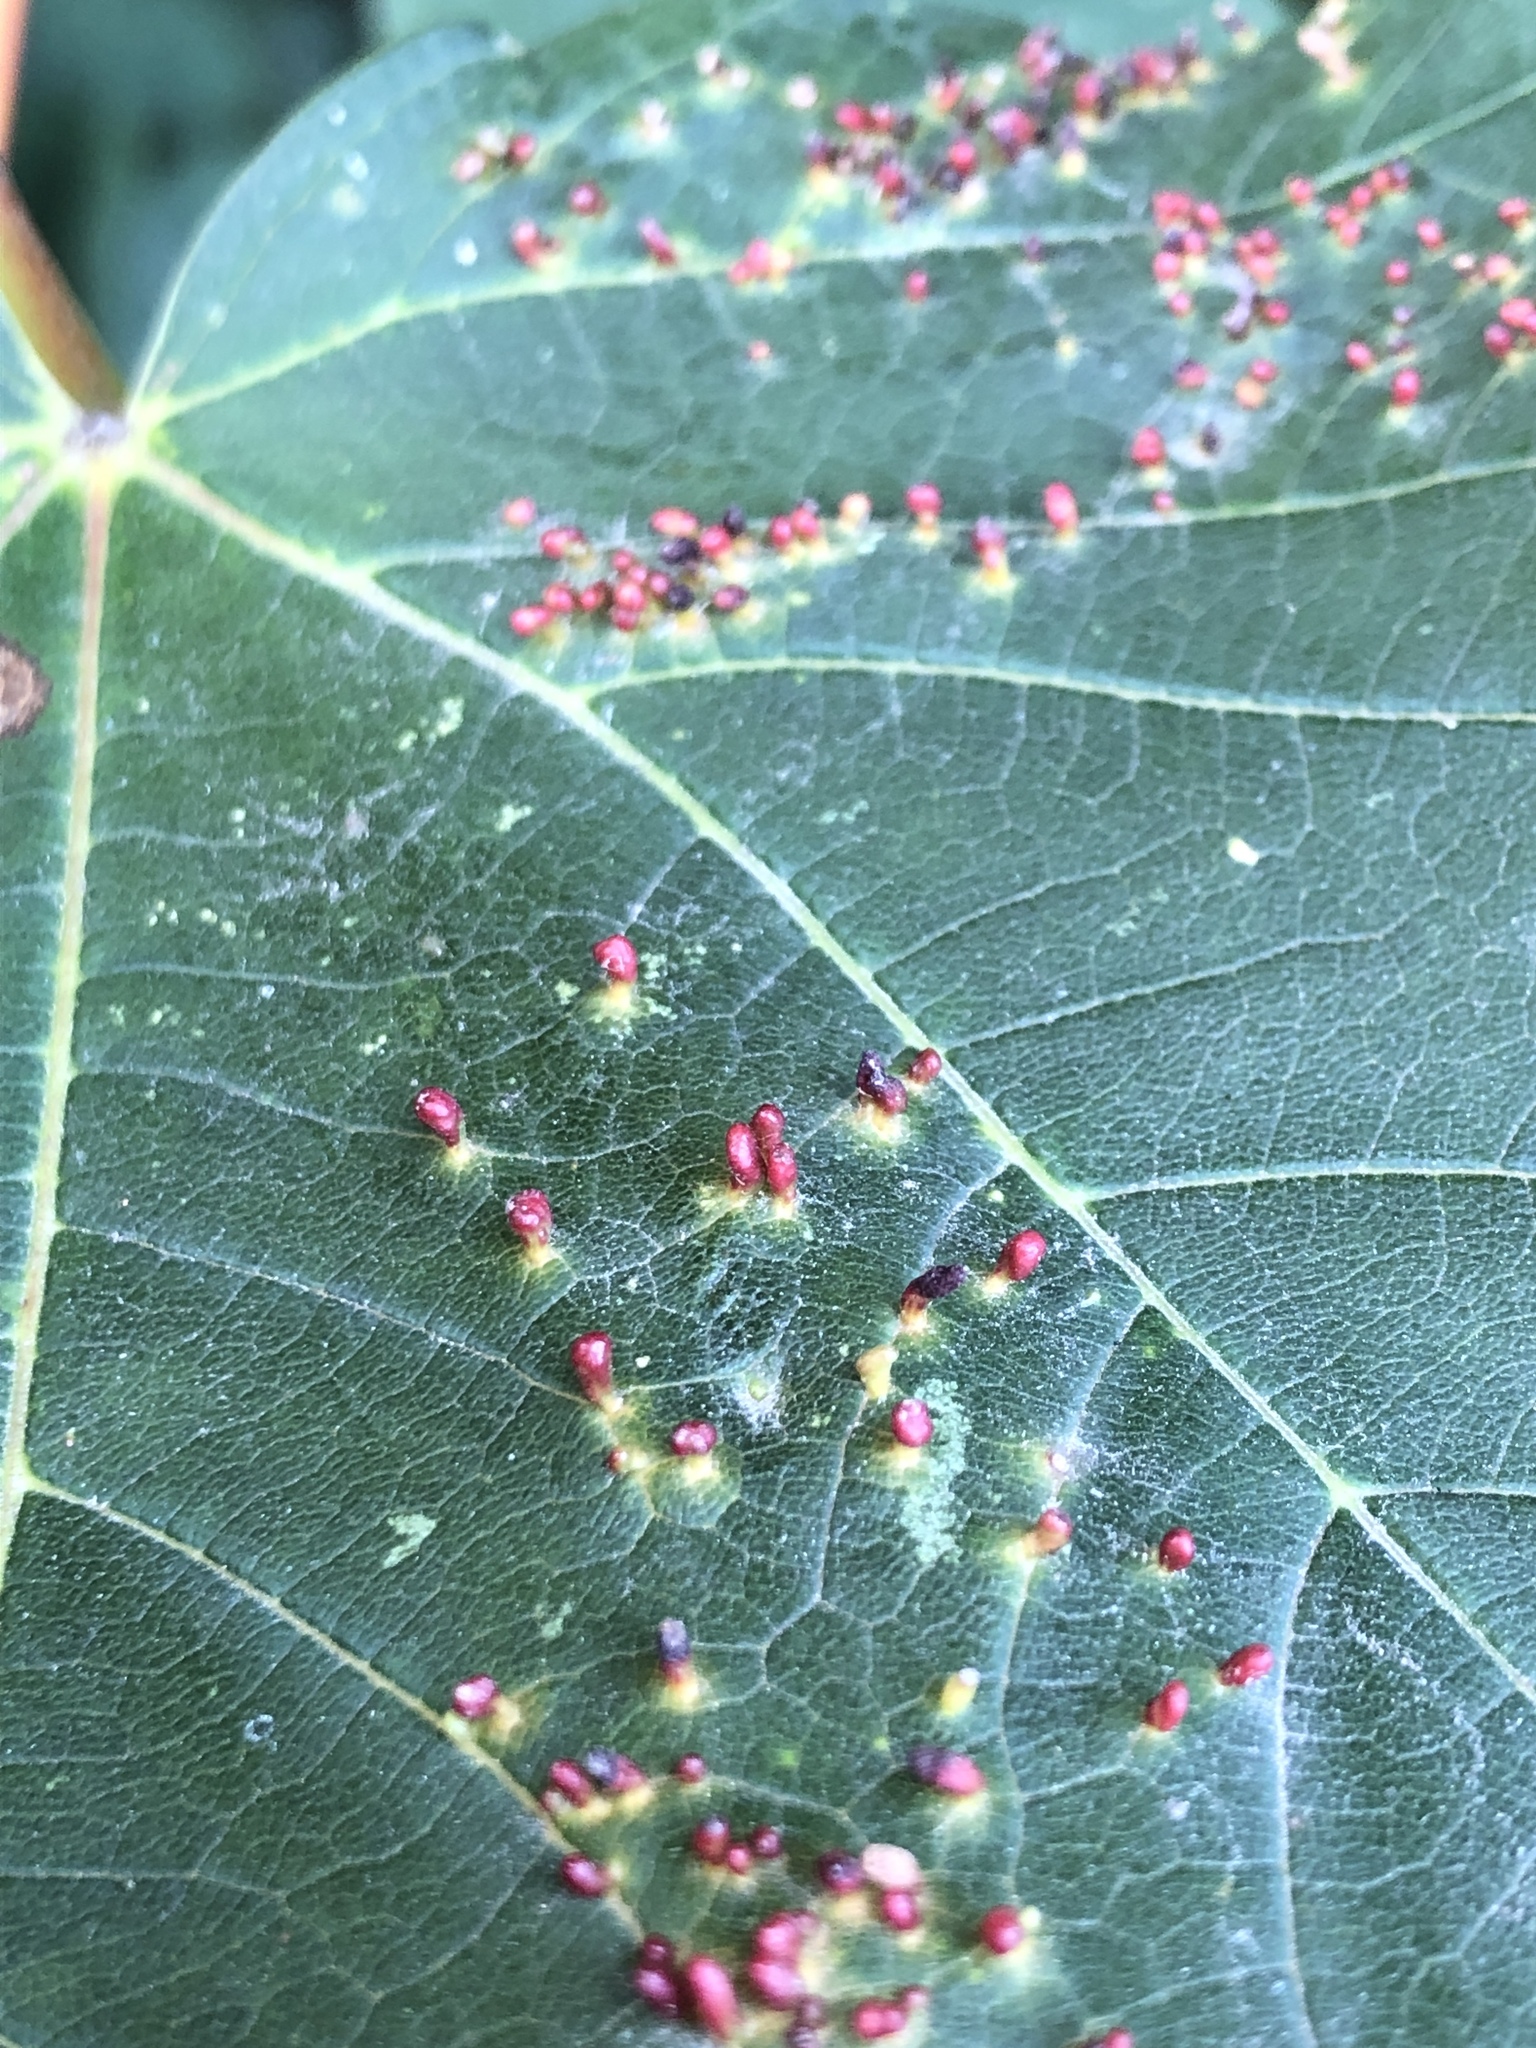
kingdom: Animalia
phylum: Arthropoda
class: Arachnida
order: Trombidiformes
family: Eriophyidae
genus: Aceria
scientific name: Aceria cephaloneus
